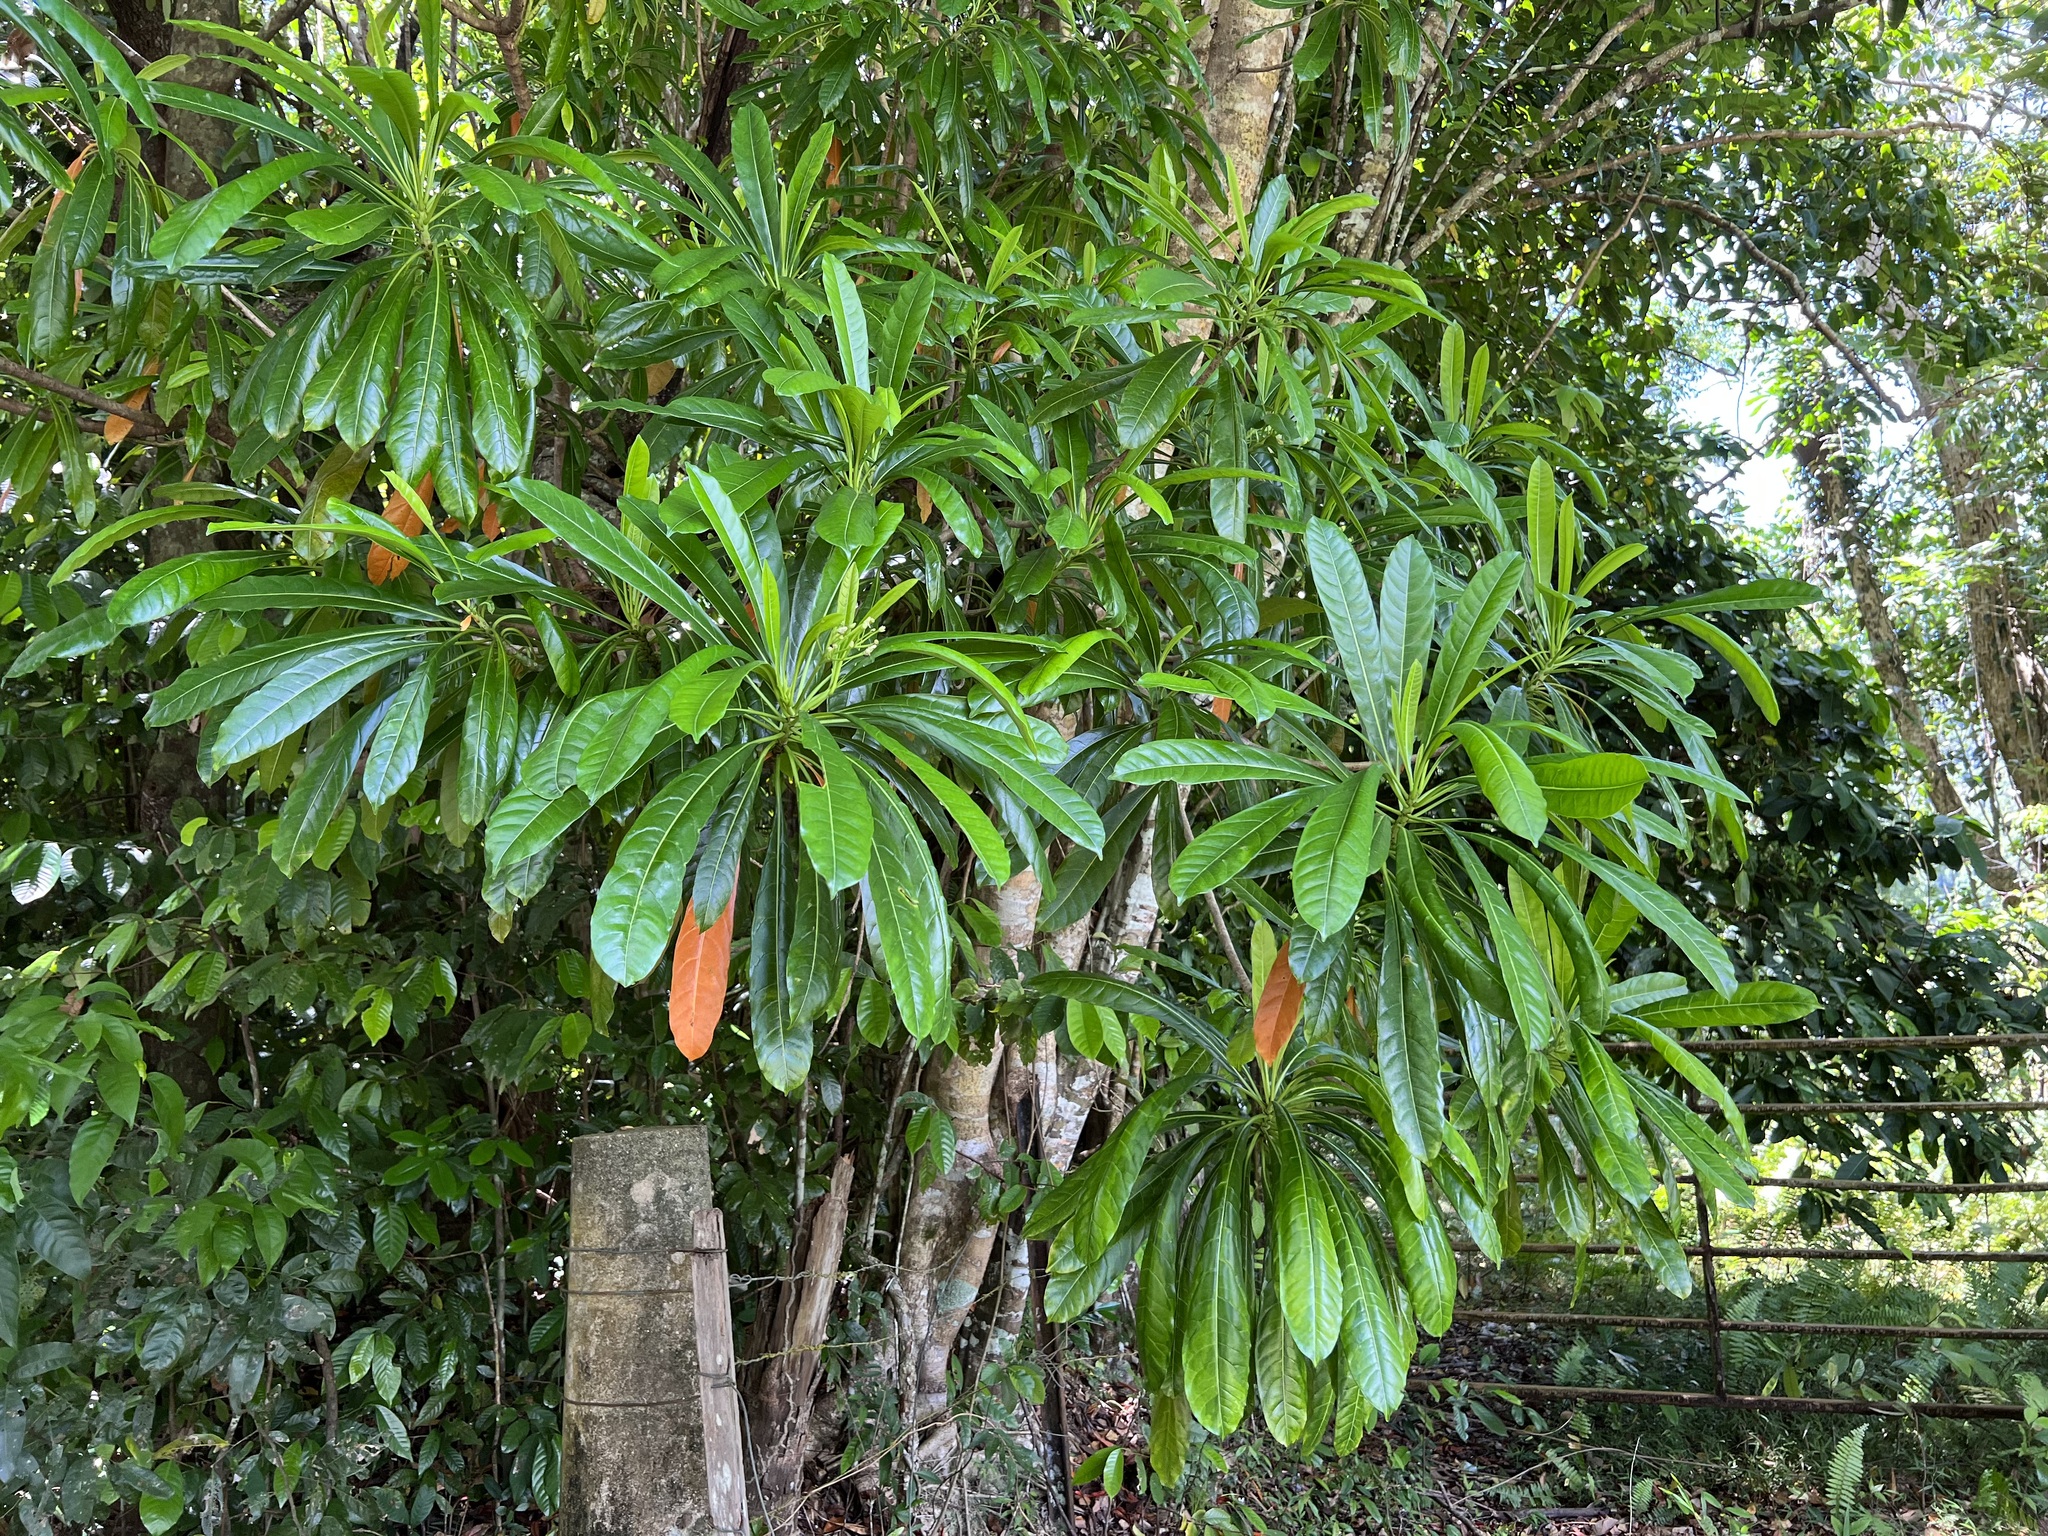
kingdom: Plantae
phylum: Tracheophyta
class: Magnoliopsida
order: Gentianales
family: Apocynaceae
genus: Cerbera
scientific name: Cerbera floribunda
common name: Cassowary plumtree
